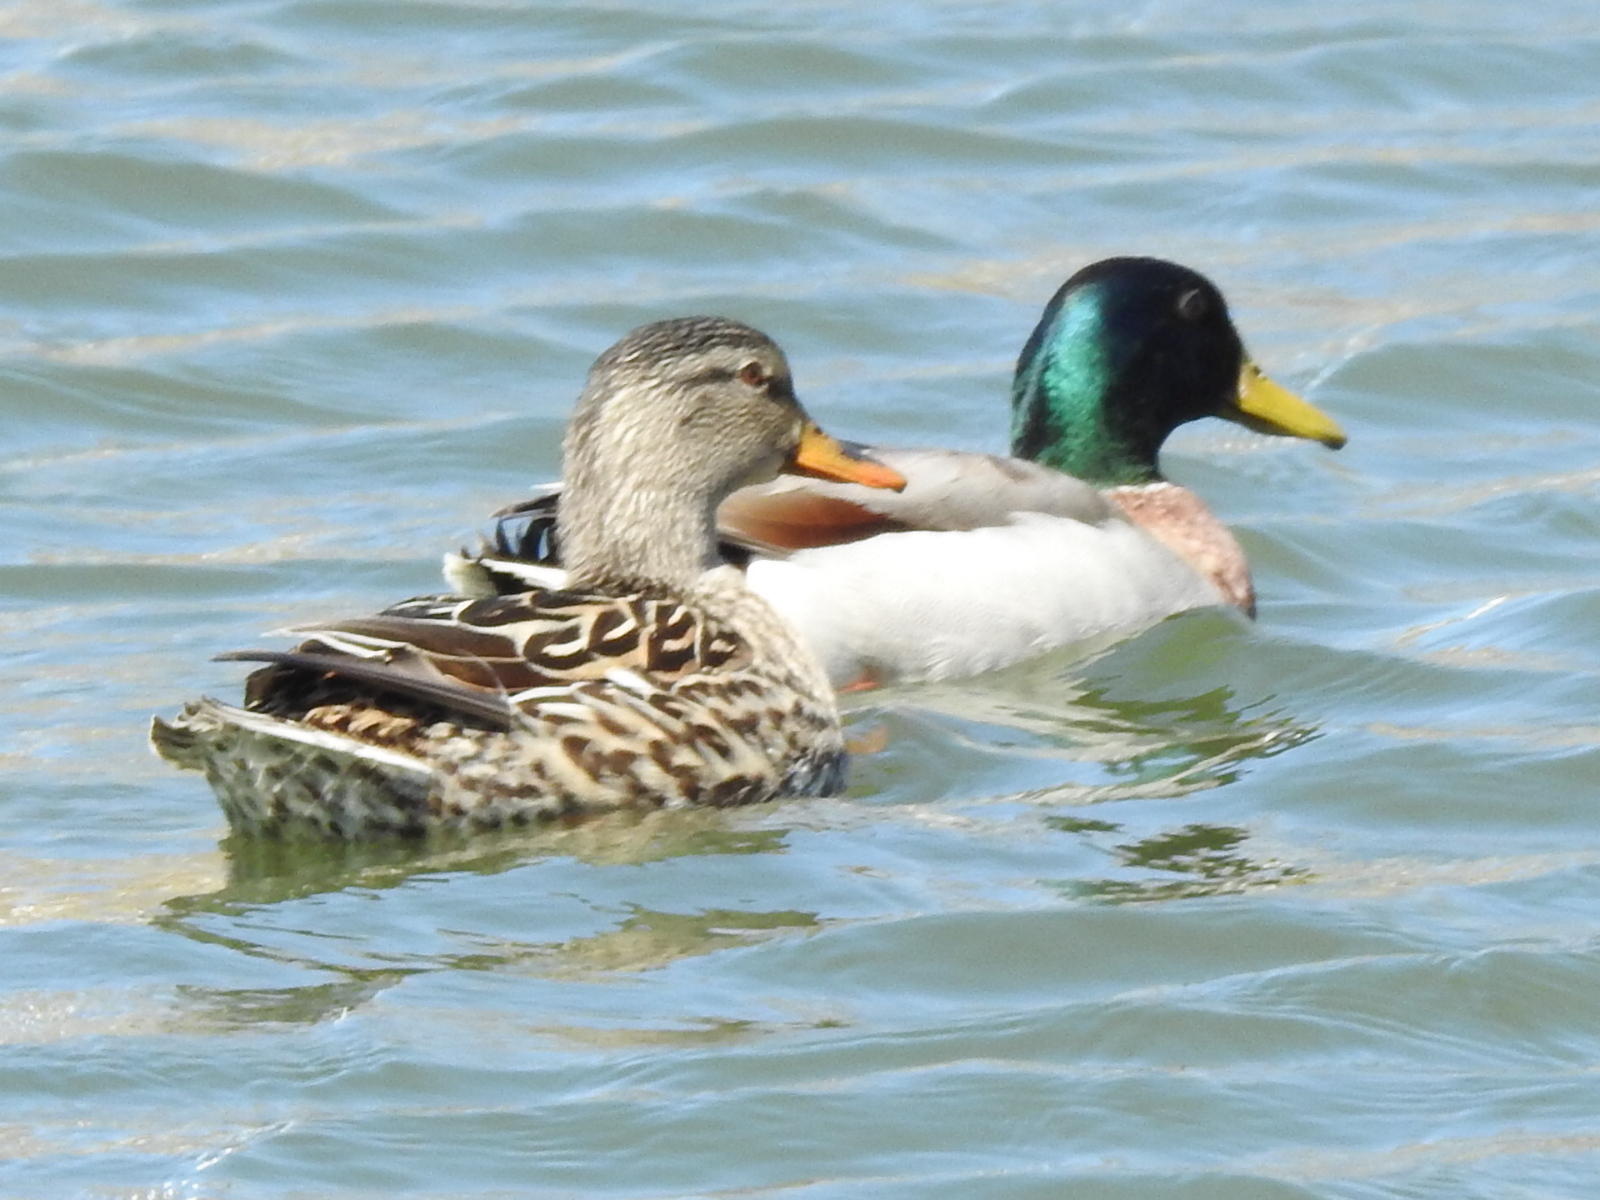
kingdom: Animalia
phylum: Chordata
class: Aves
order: Anseriformes
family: Anatidae
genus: Anas
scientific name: Anas platyrhynchos
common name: Mallard
